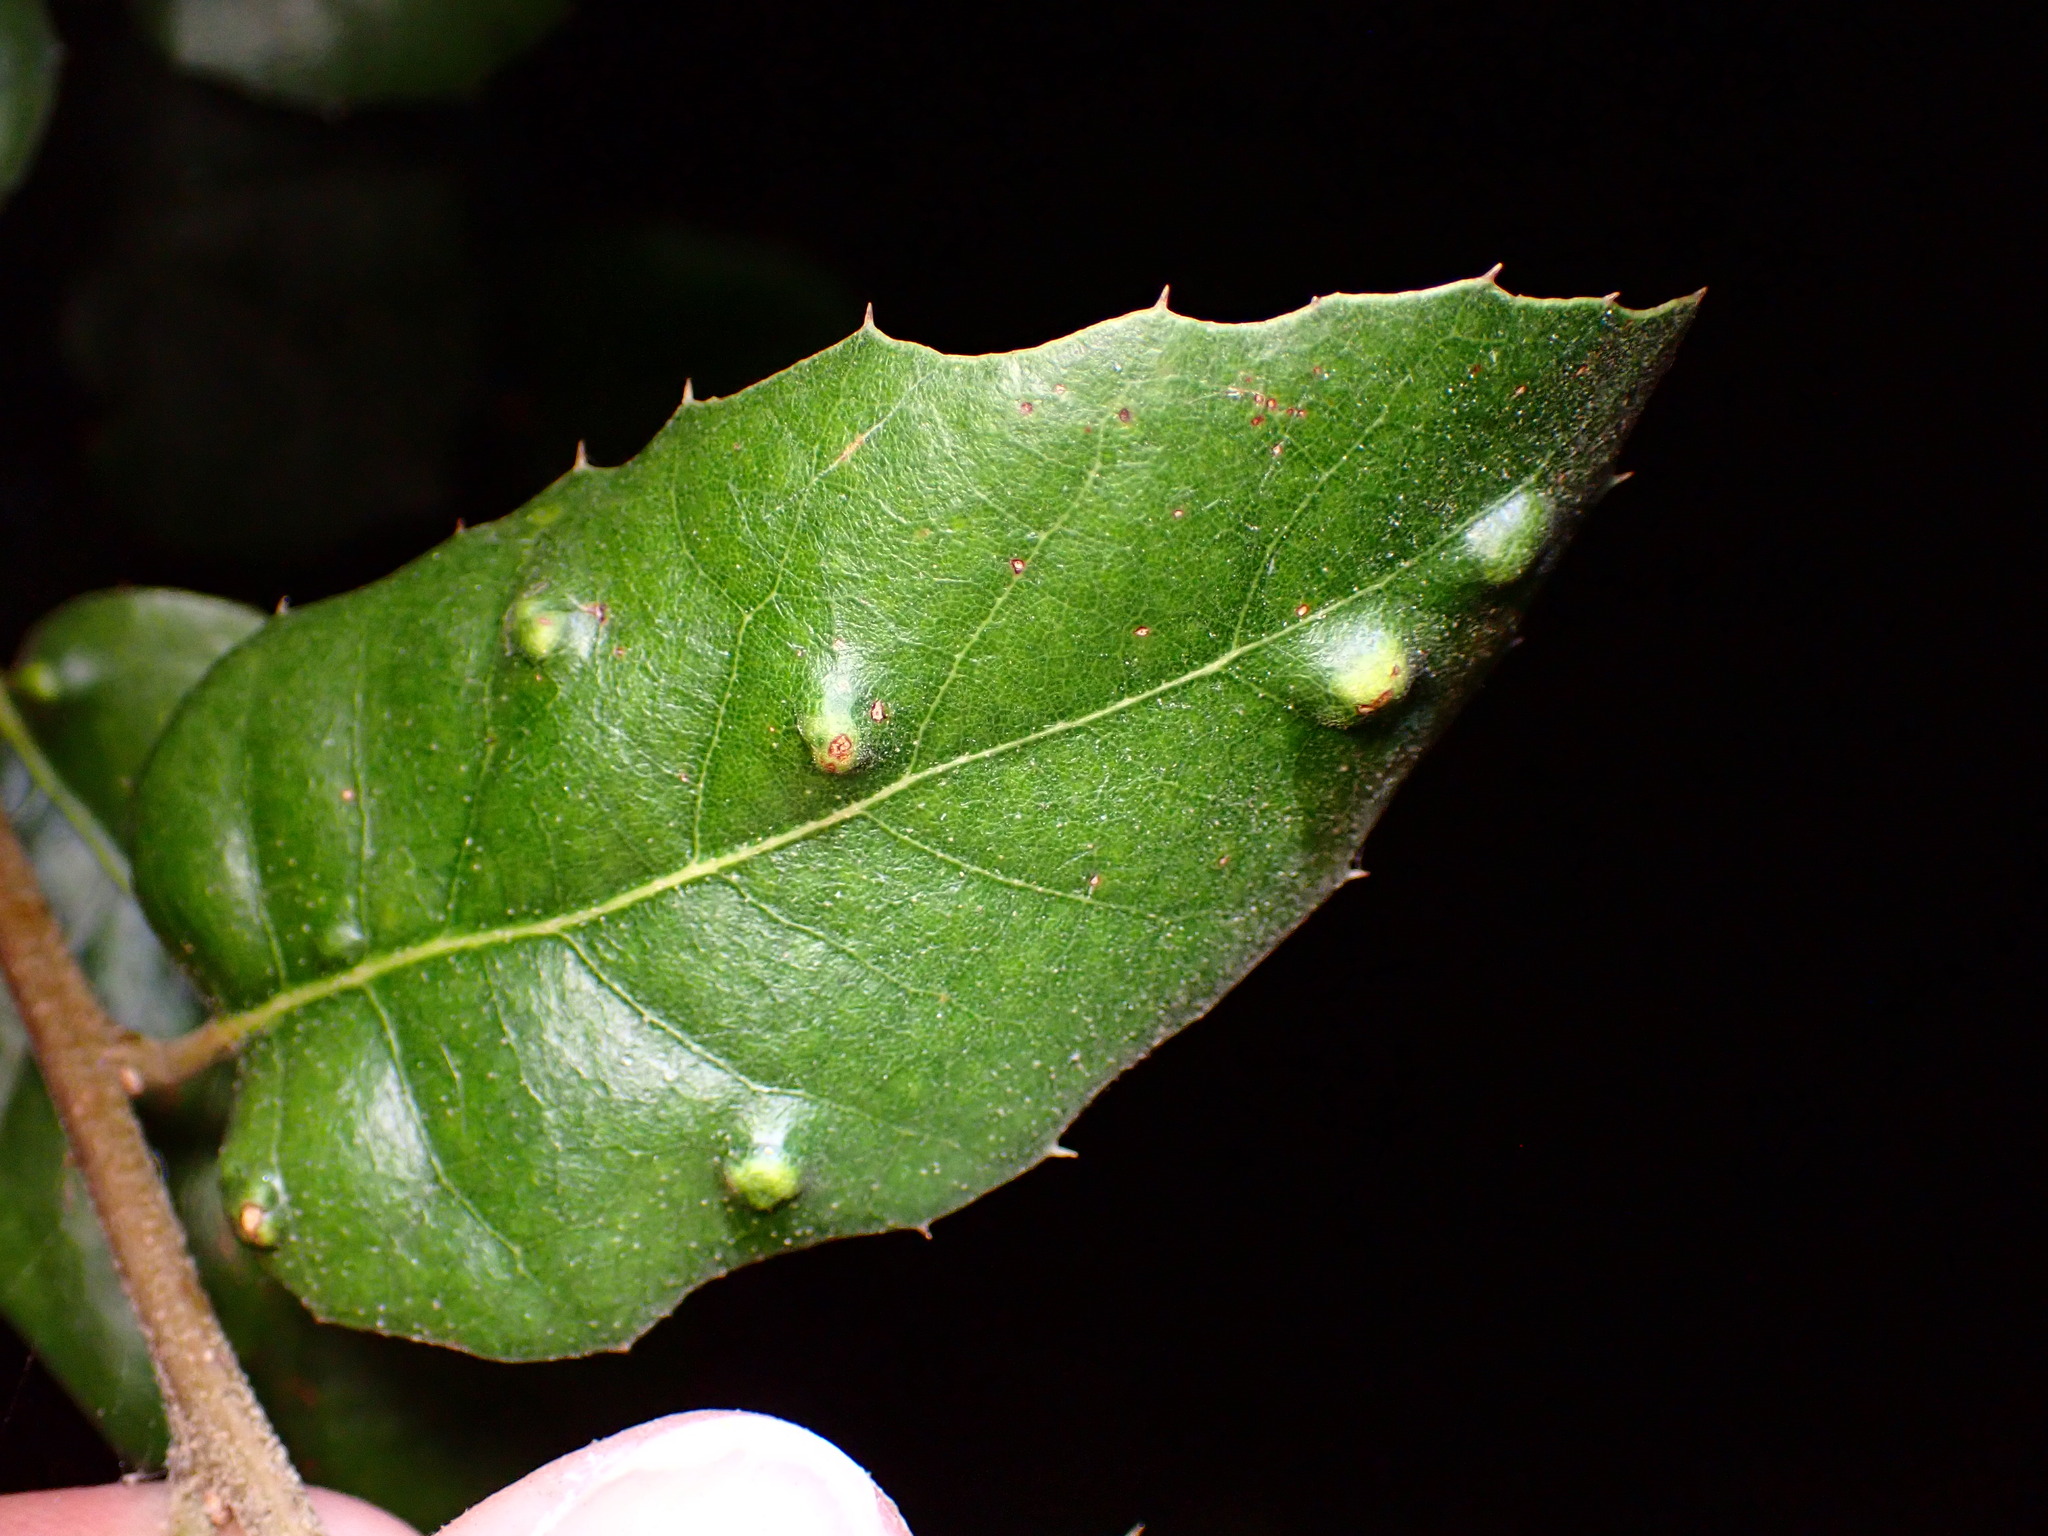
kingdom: Animalia
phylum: Arthropoda
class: Arachnida
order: Trombidiformes
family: Eriophyidae
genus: Aceria
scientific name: Aceria
